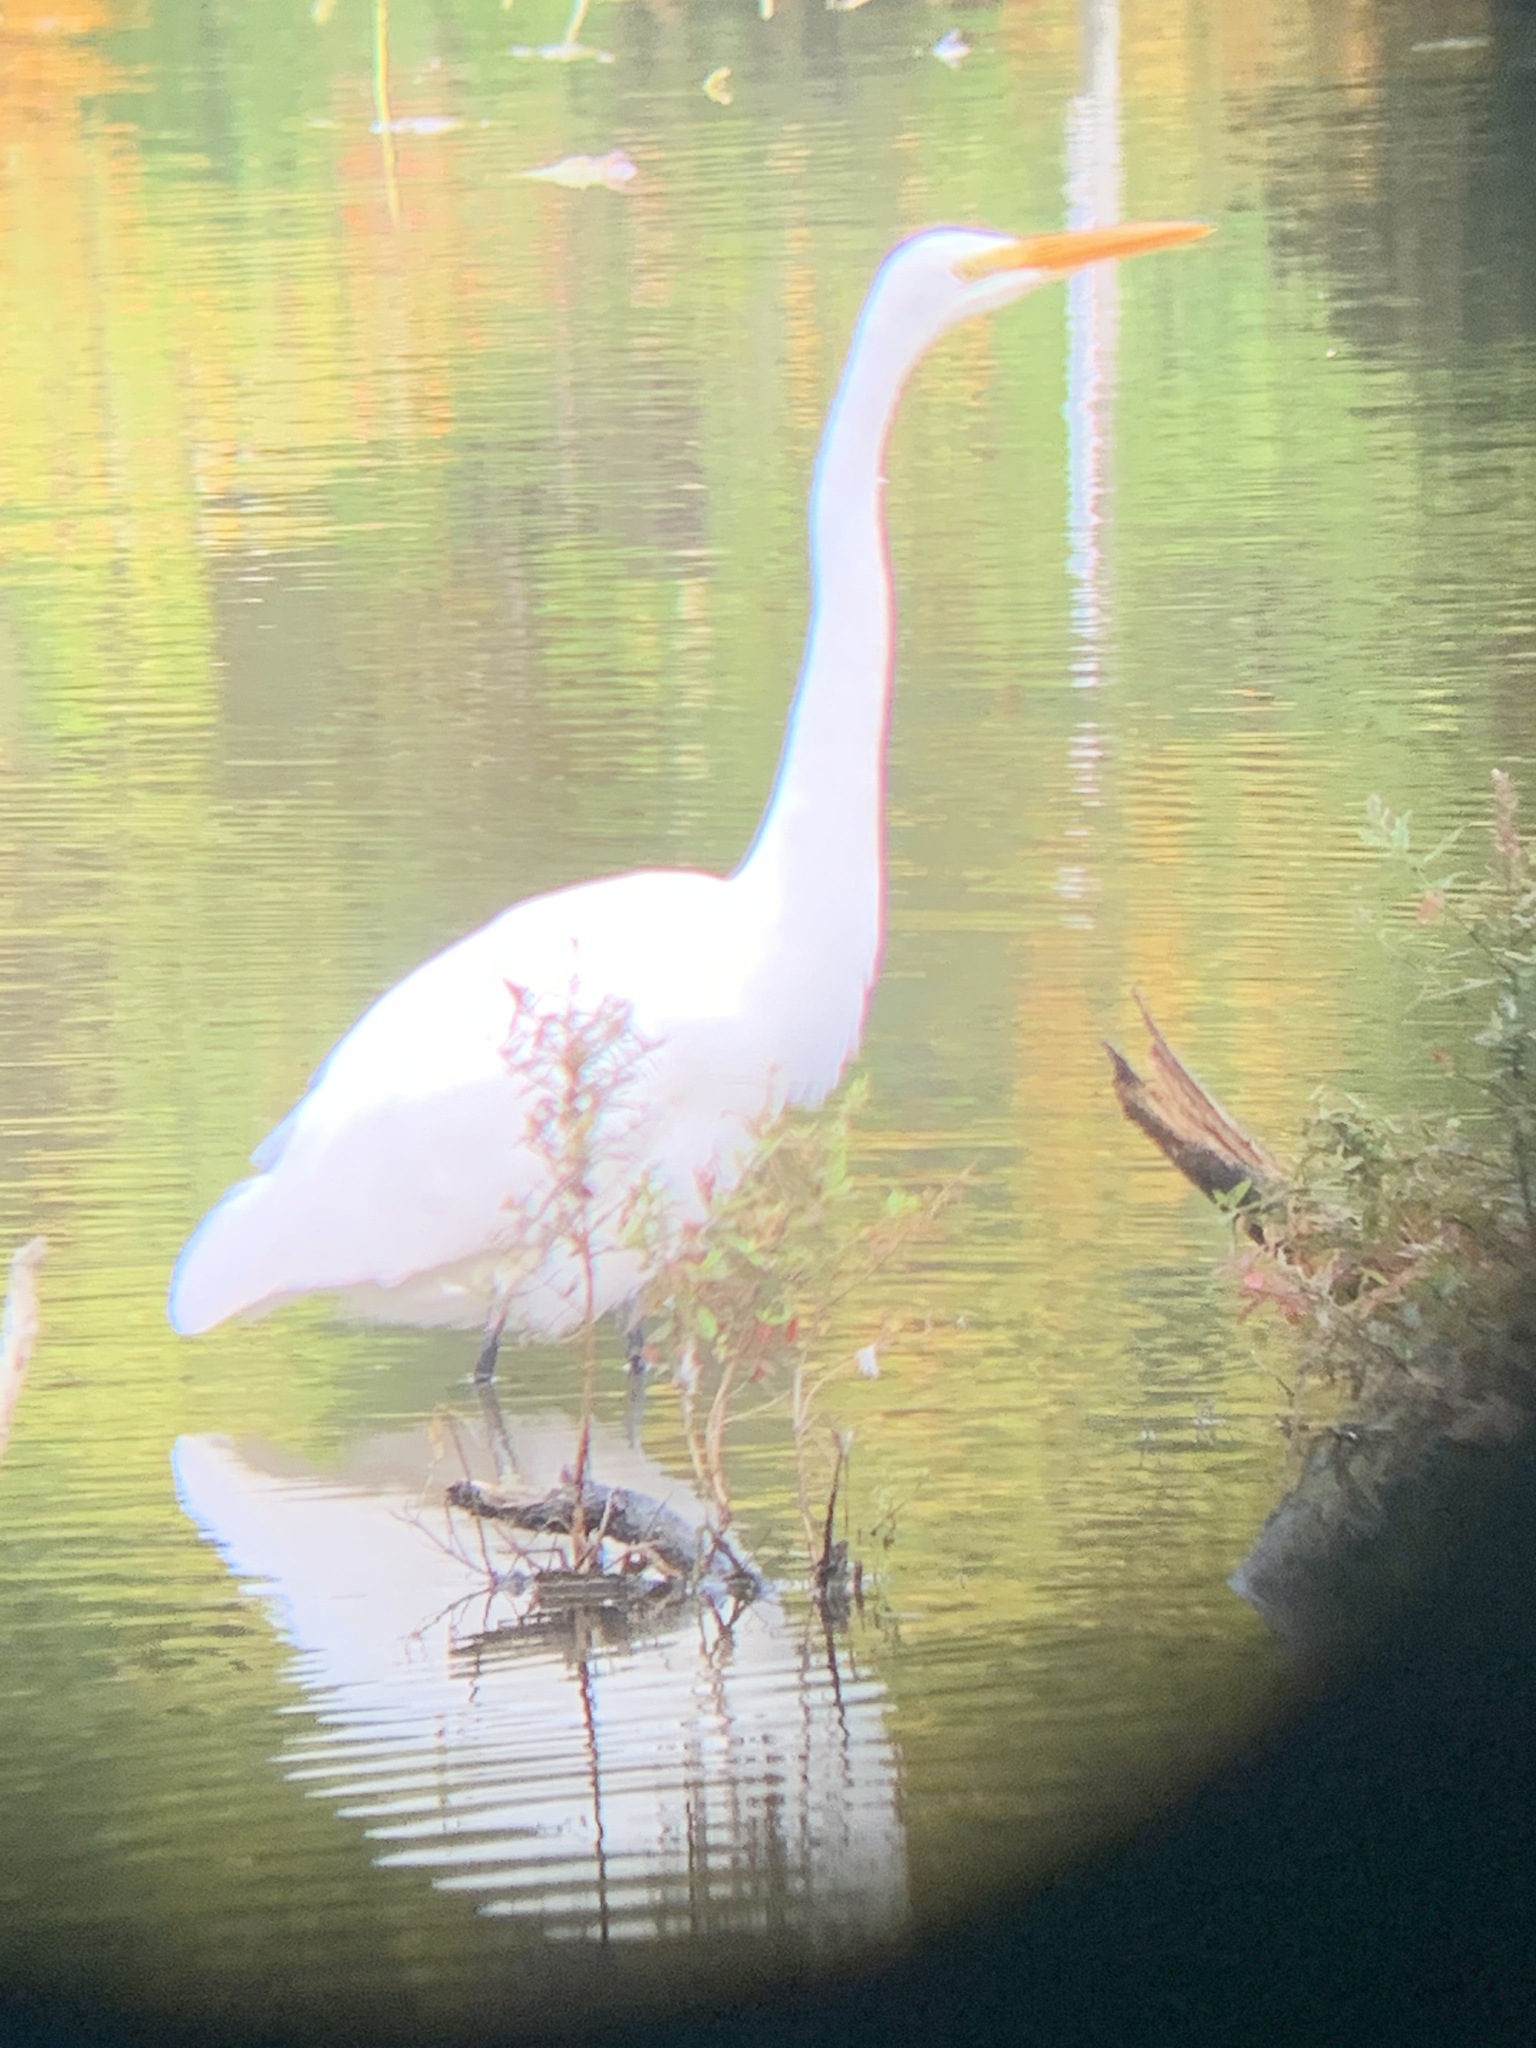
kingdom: Animalia
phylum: Chordata
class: Aves
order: Pelecaniformes
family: Ardeidae
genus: Ardea
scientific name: Ardea alba
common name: Great egret
